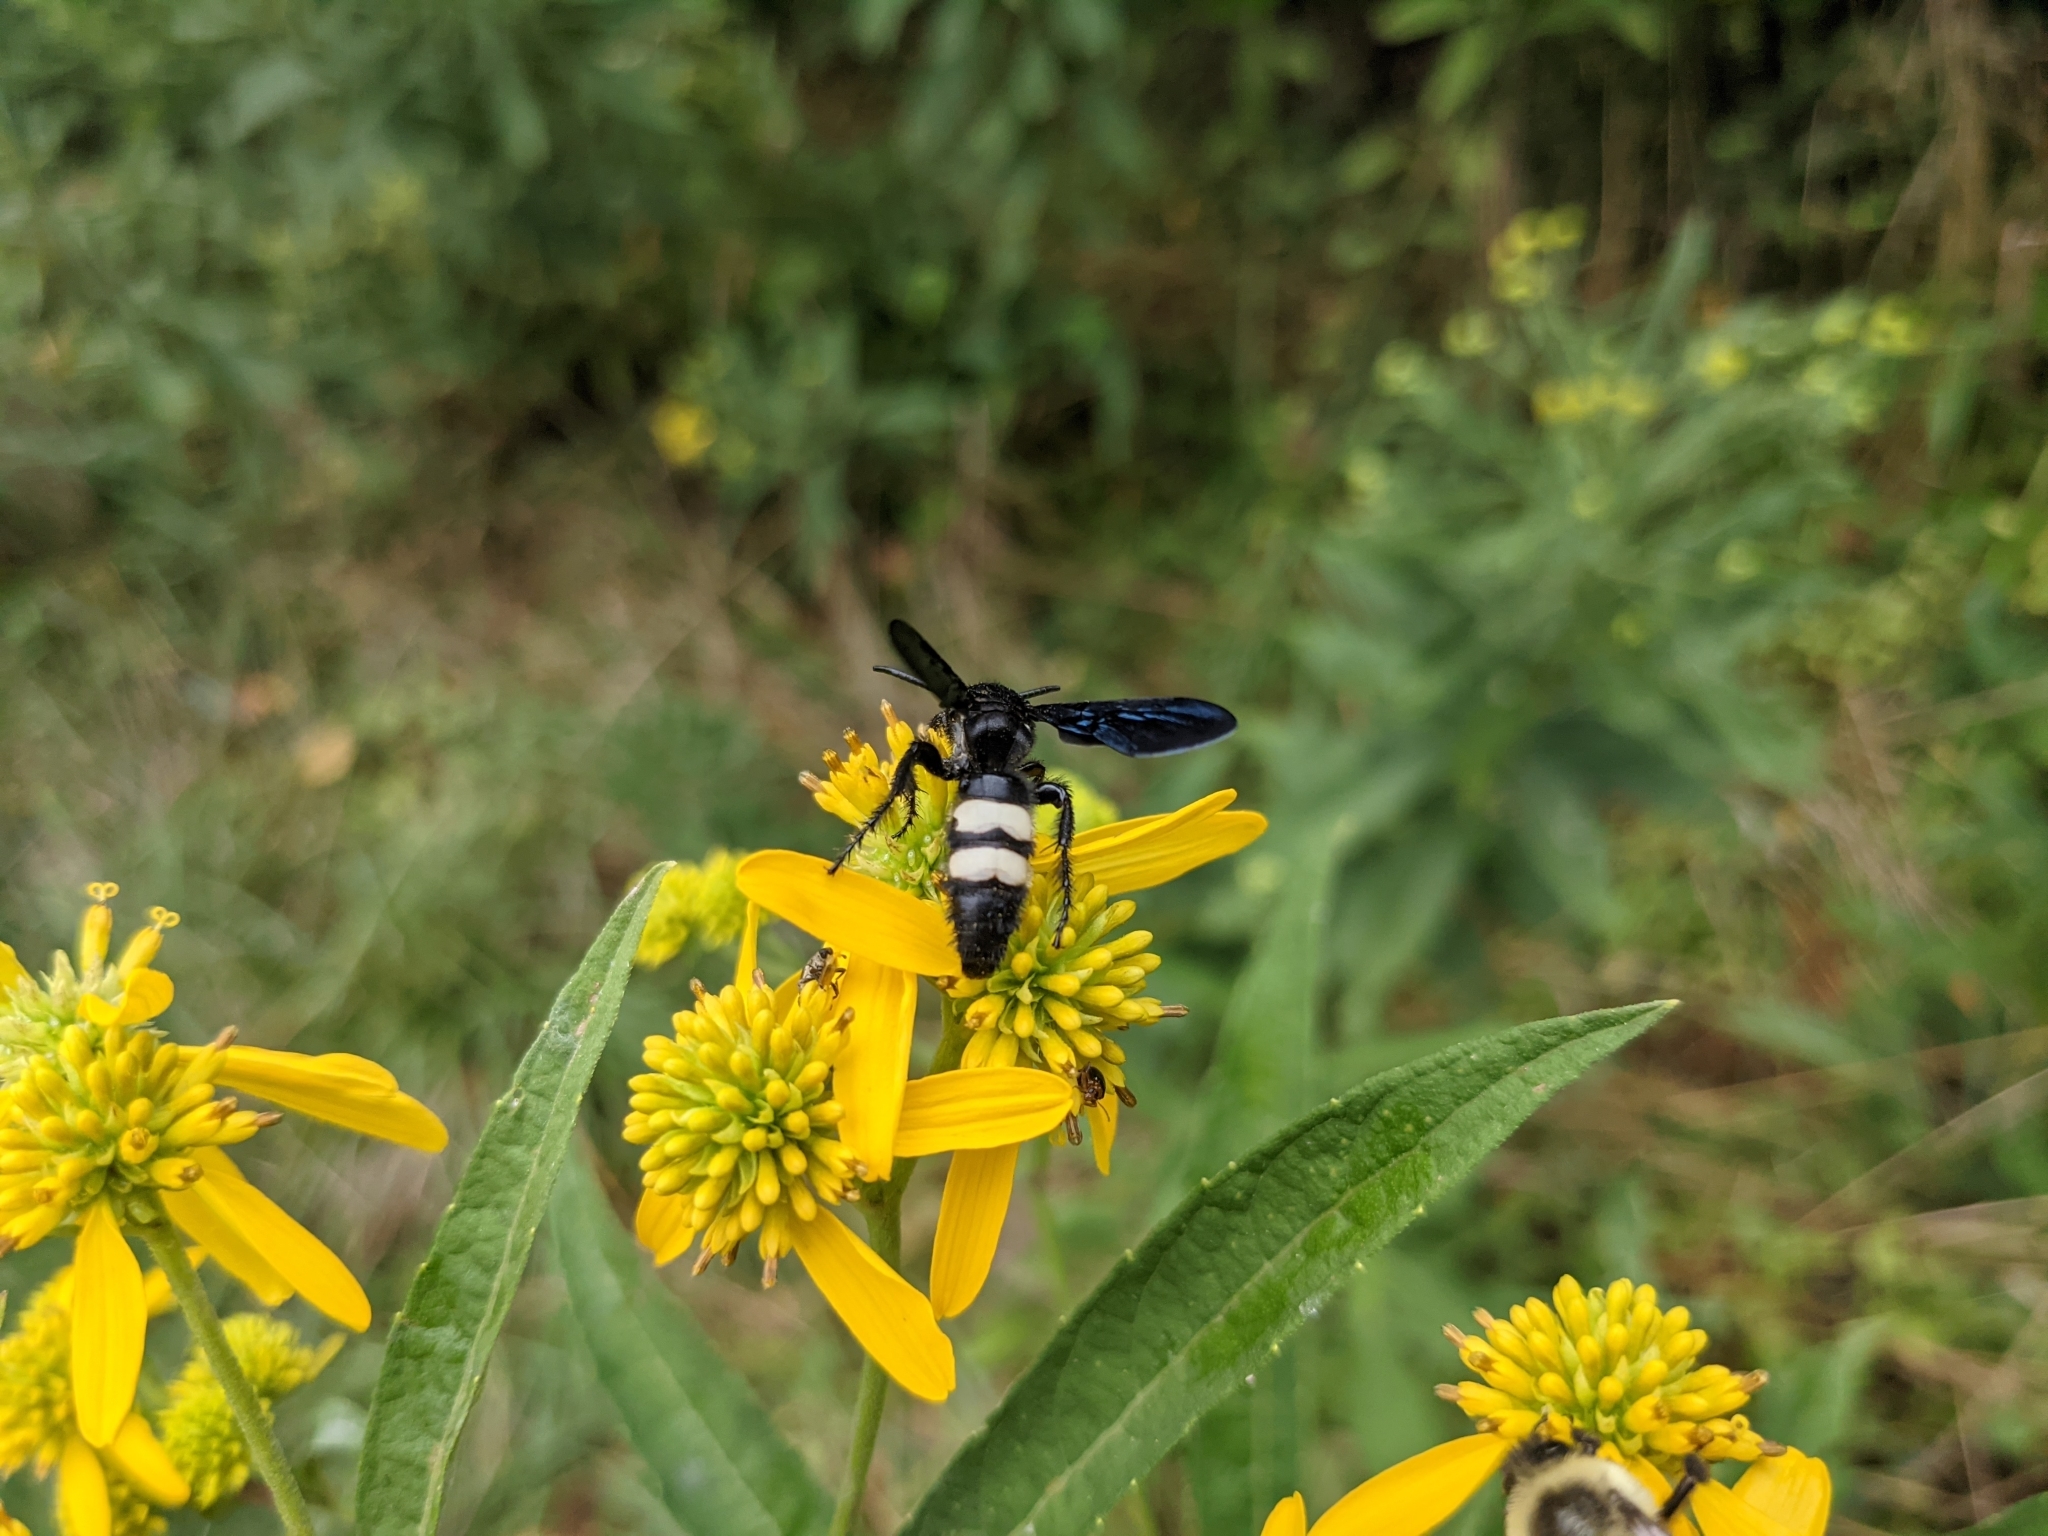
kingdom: Animalia
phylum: Arthropoda
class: Insecta
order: Hymenoptera
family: Scoliidae
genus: Scolia
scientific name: Scolia bicincta
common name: Double-banded scoliid wasp
